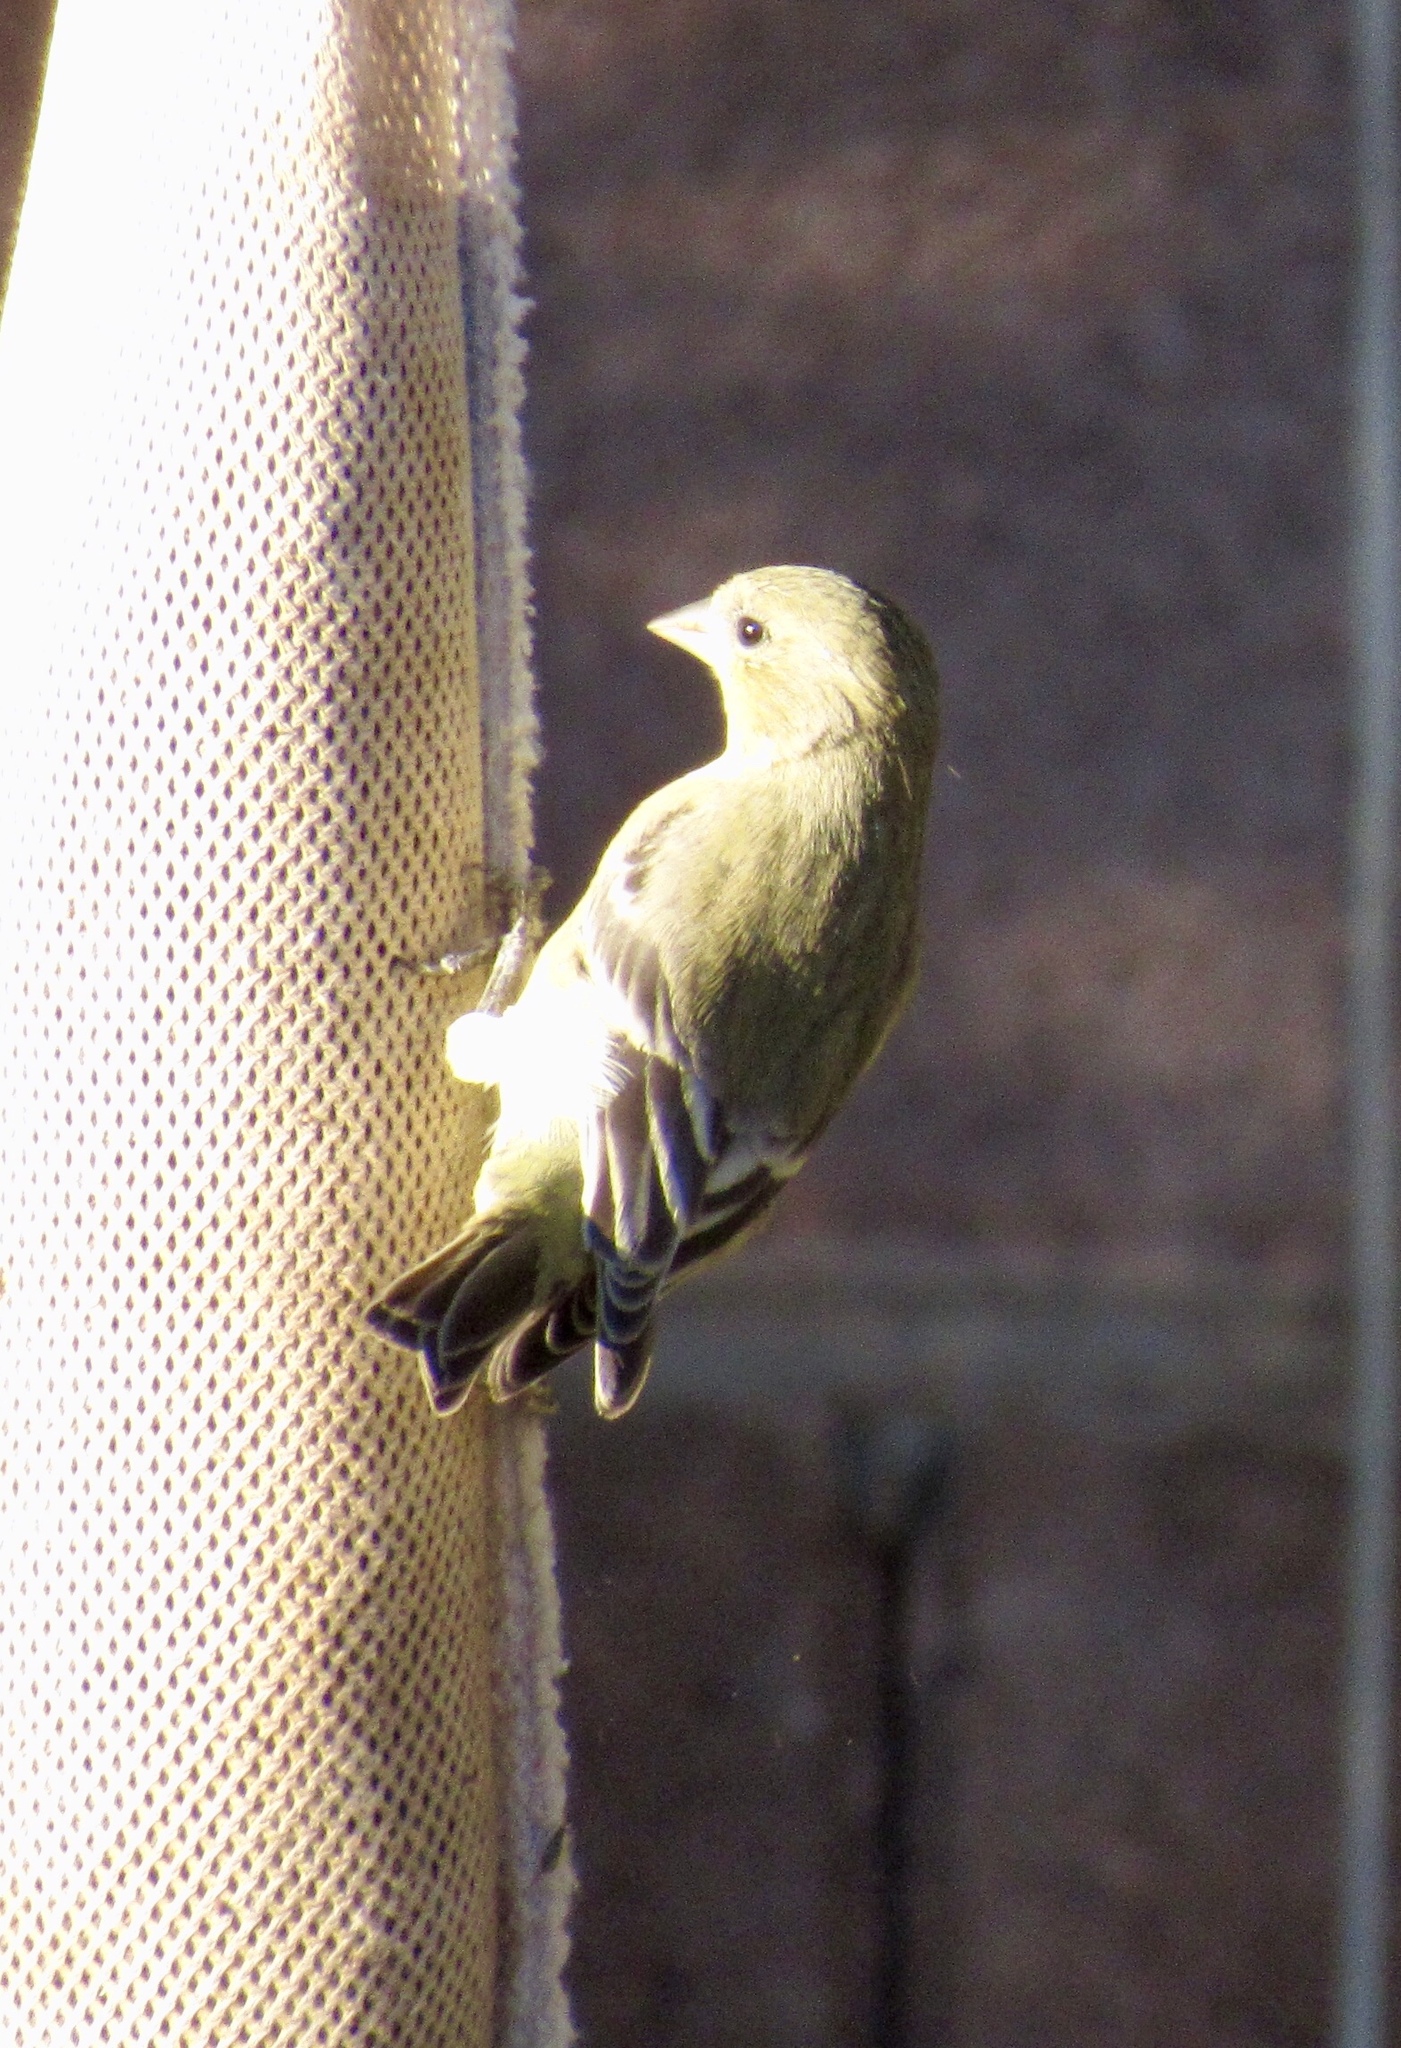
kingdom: Animalia
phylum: Chordata
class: Aves
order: Passeriformes
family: Fringillidae
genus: Spinus
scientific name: Spinus psaltria
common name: Lesser goldfinch
